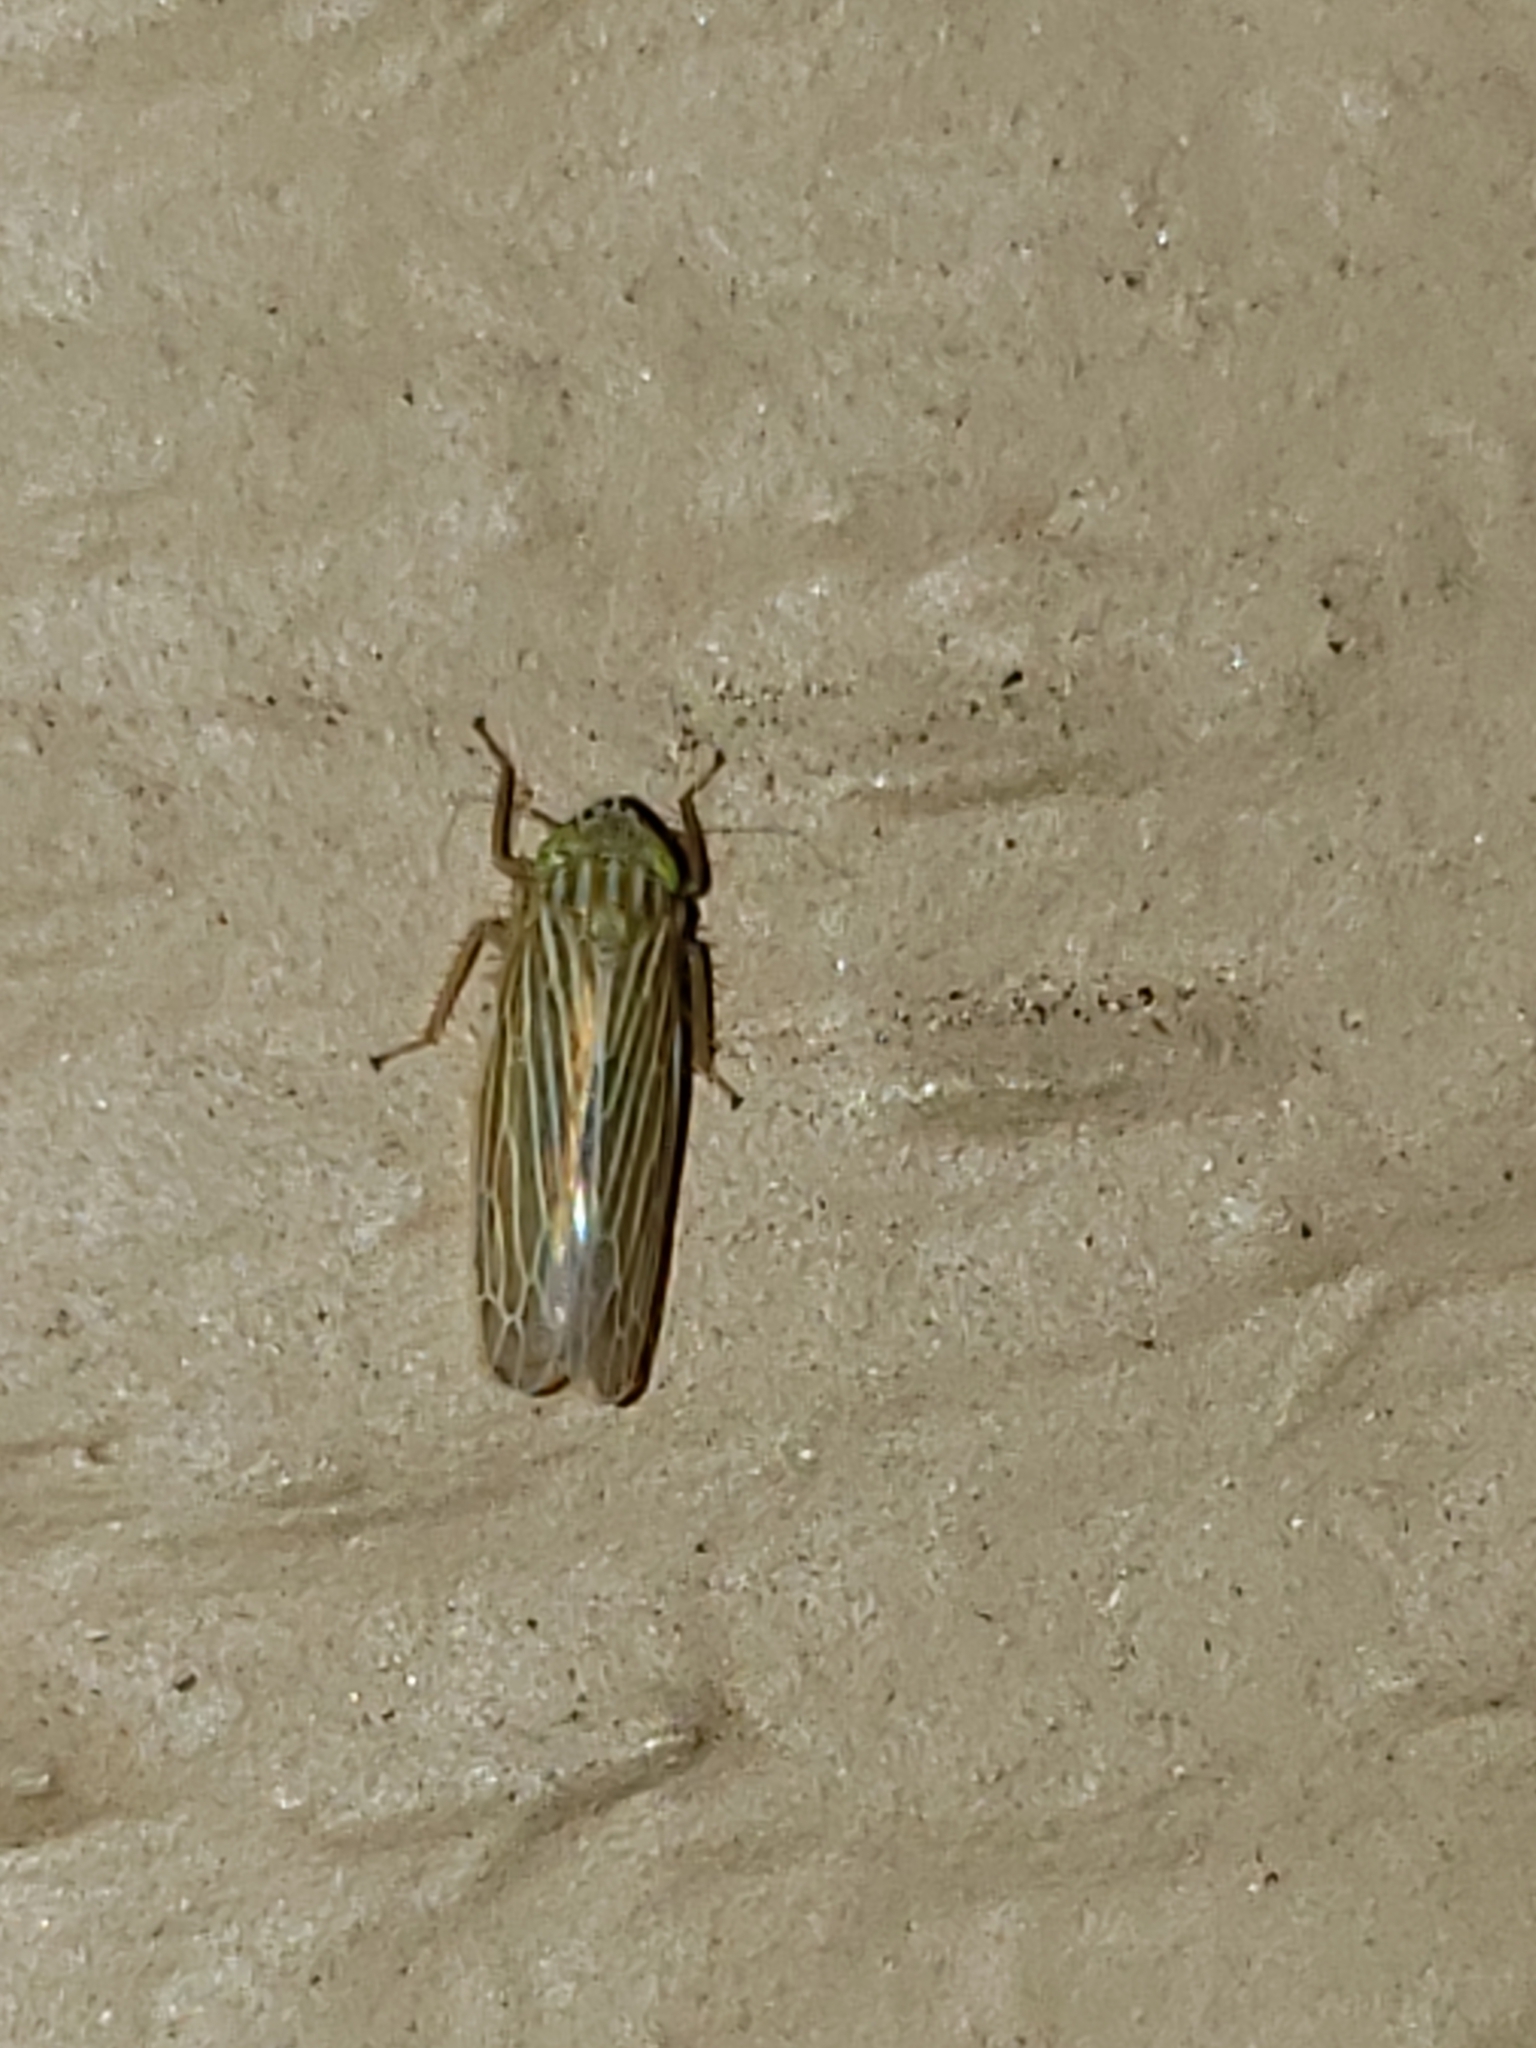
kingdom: Animalia
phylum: Arthropoda
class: Insecta
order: Hemiptera
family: Cicadellidae
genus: Graminella
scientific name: Graminella fitchii
